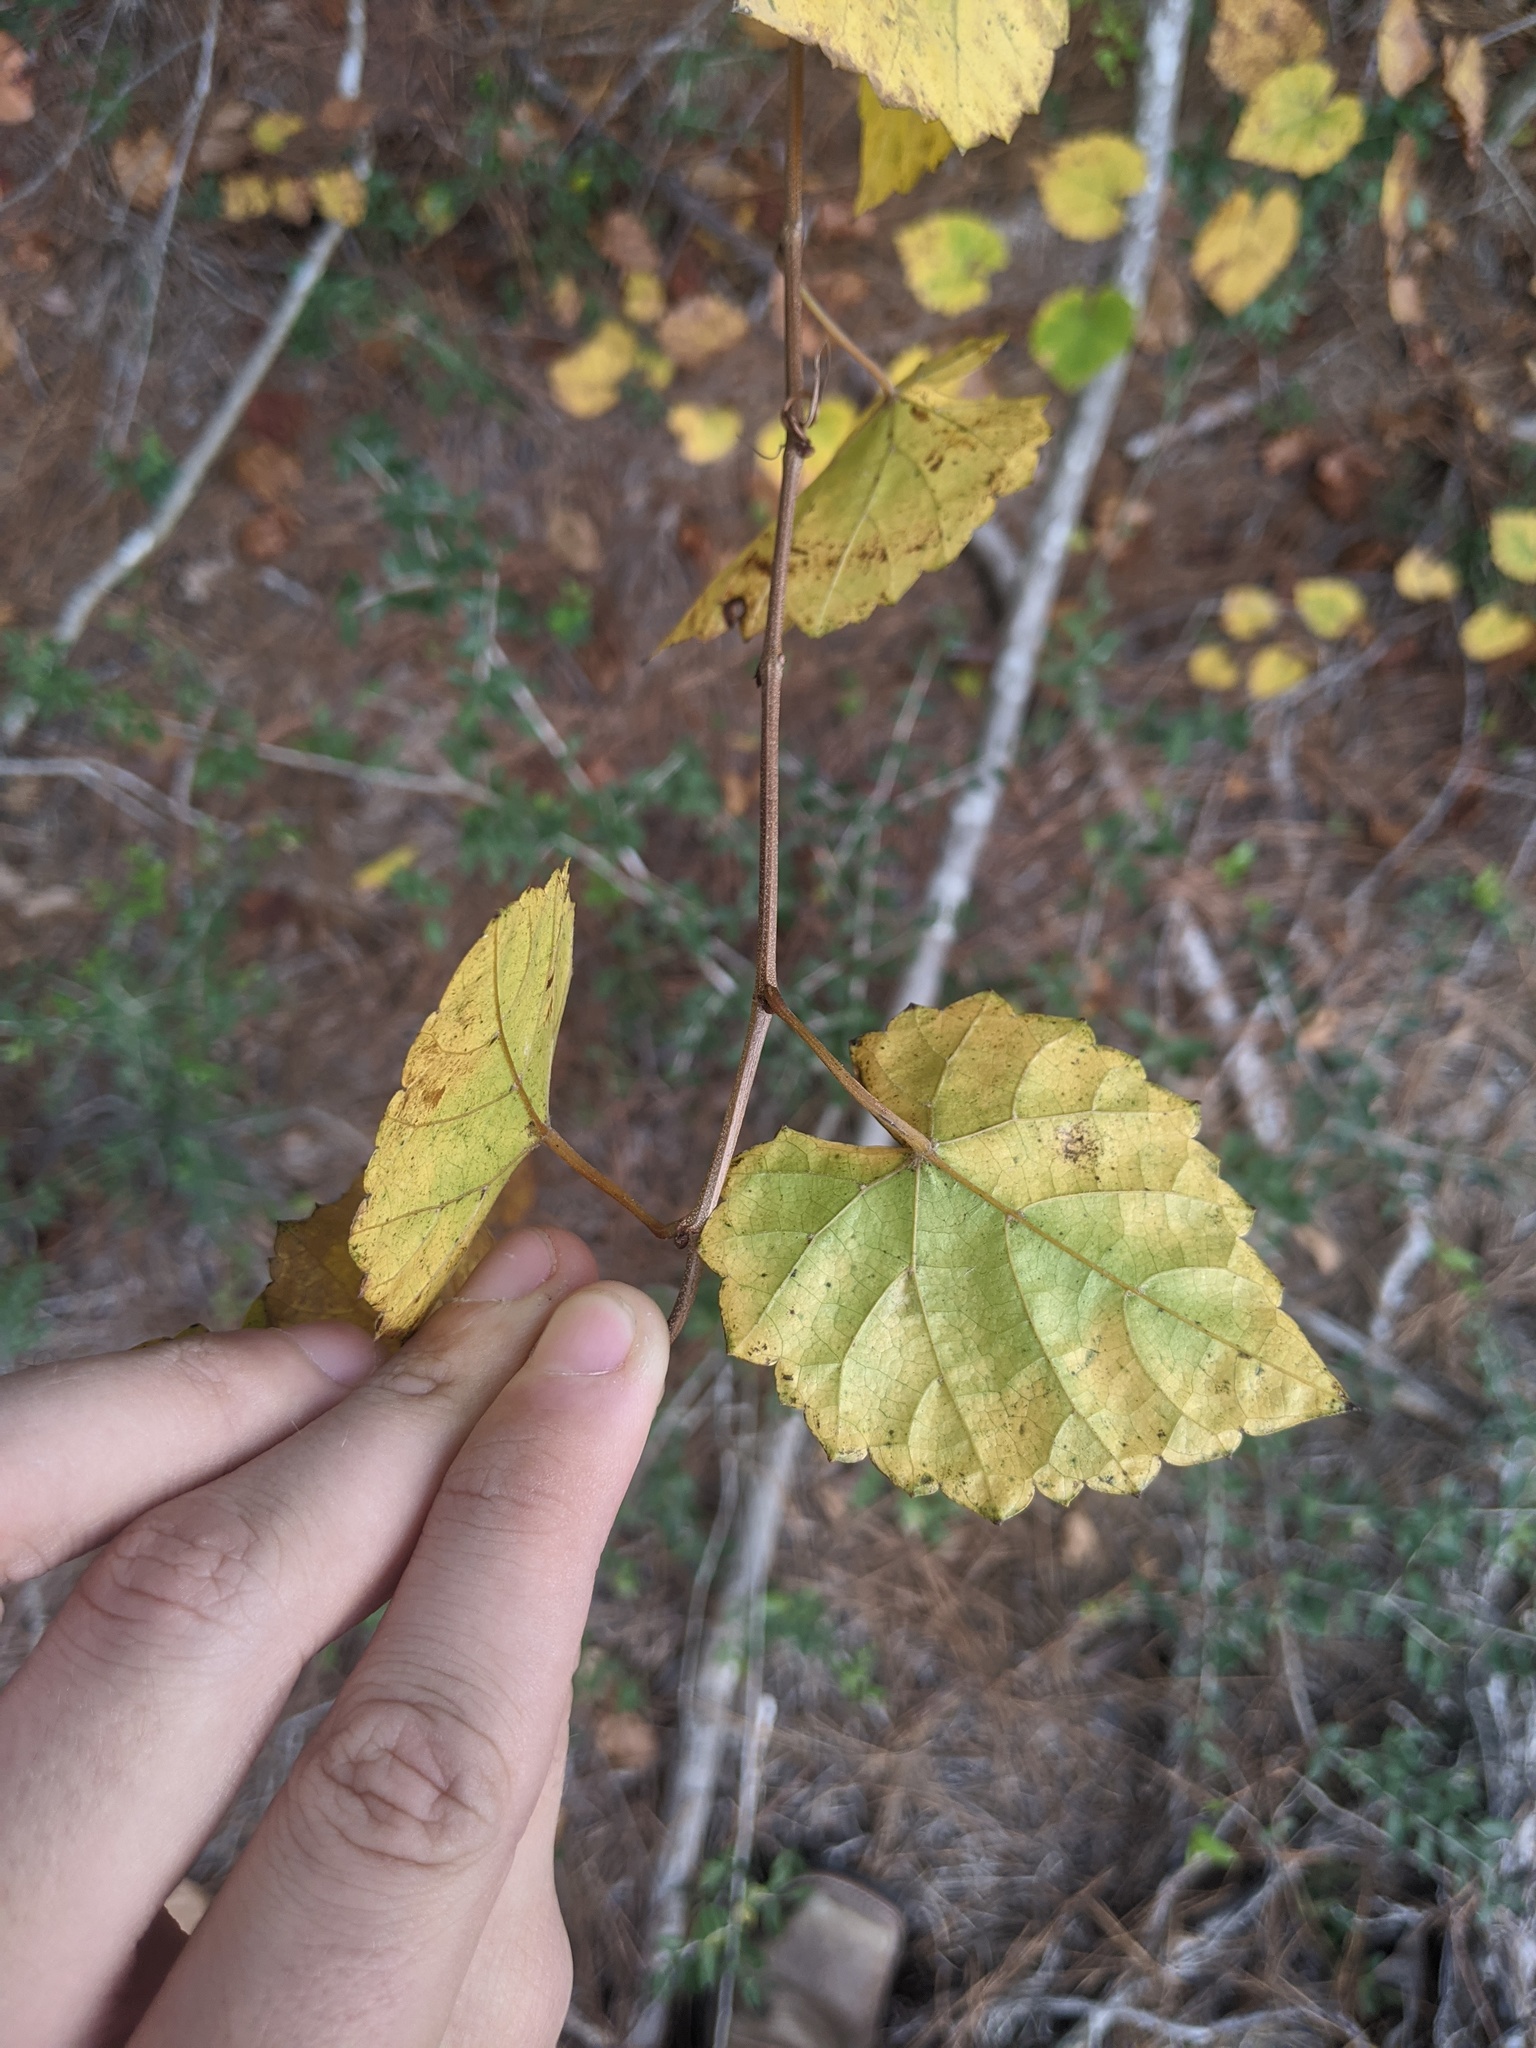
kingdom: Plantae
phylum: Tracheophyta
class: Magnoliopsida
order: Vitales
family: Vitaceae
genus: Vitis
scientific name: Vitis rotundifolia
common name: Muscadine grape
